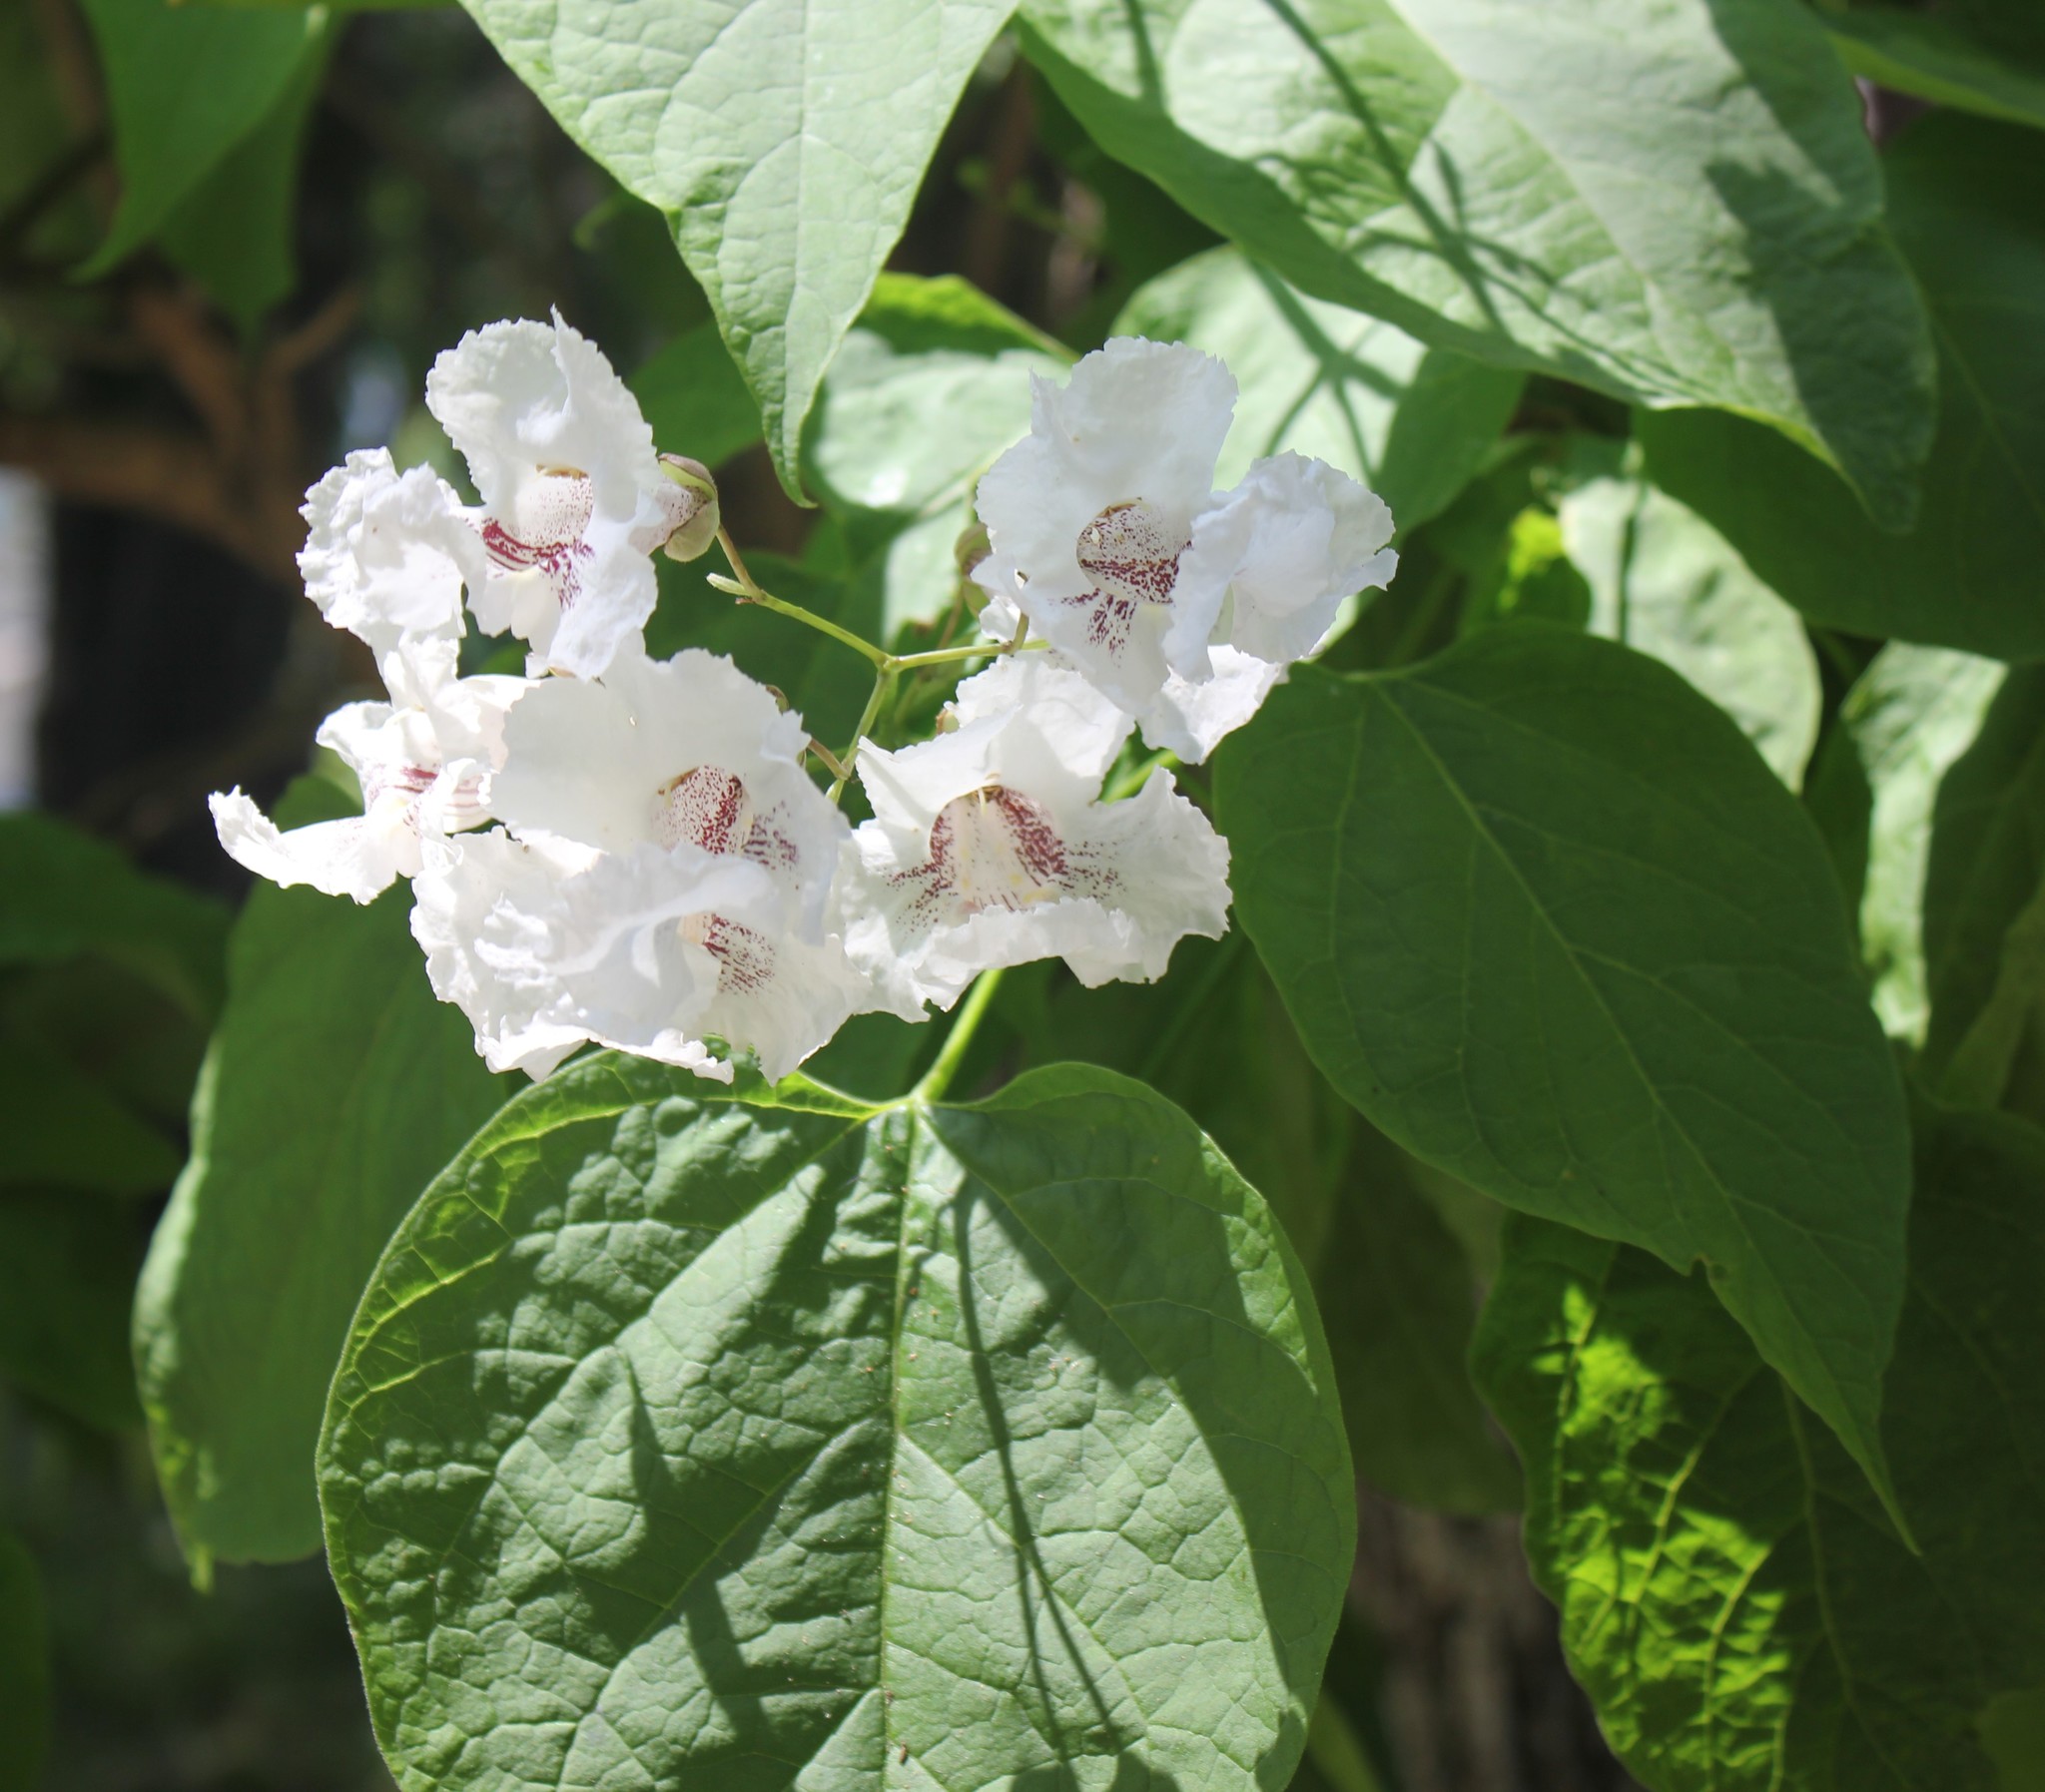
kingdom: Plantae
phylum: Tracheophyta
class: Magnoliopsida
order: Lamiales
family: Bignoniaceae
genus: Catalpa
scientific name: Catalpa bignonioides
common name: Southern catalpa
